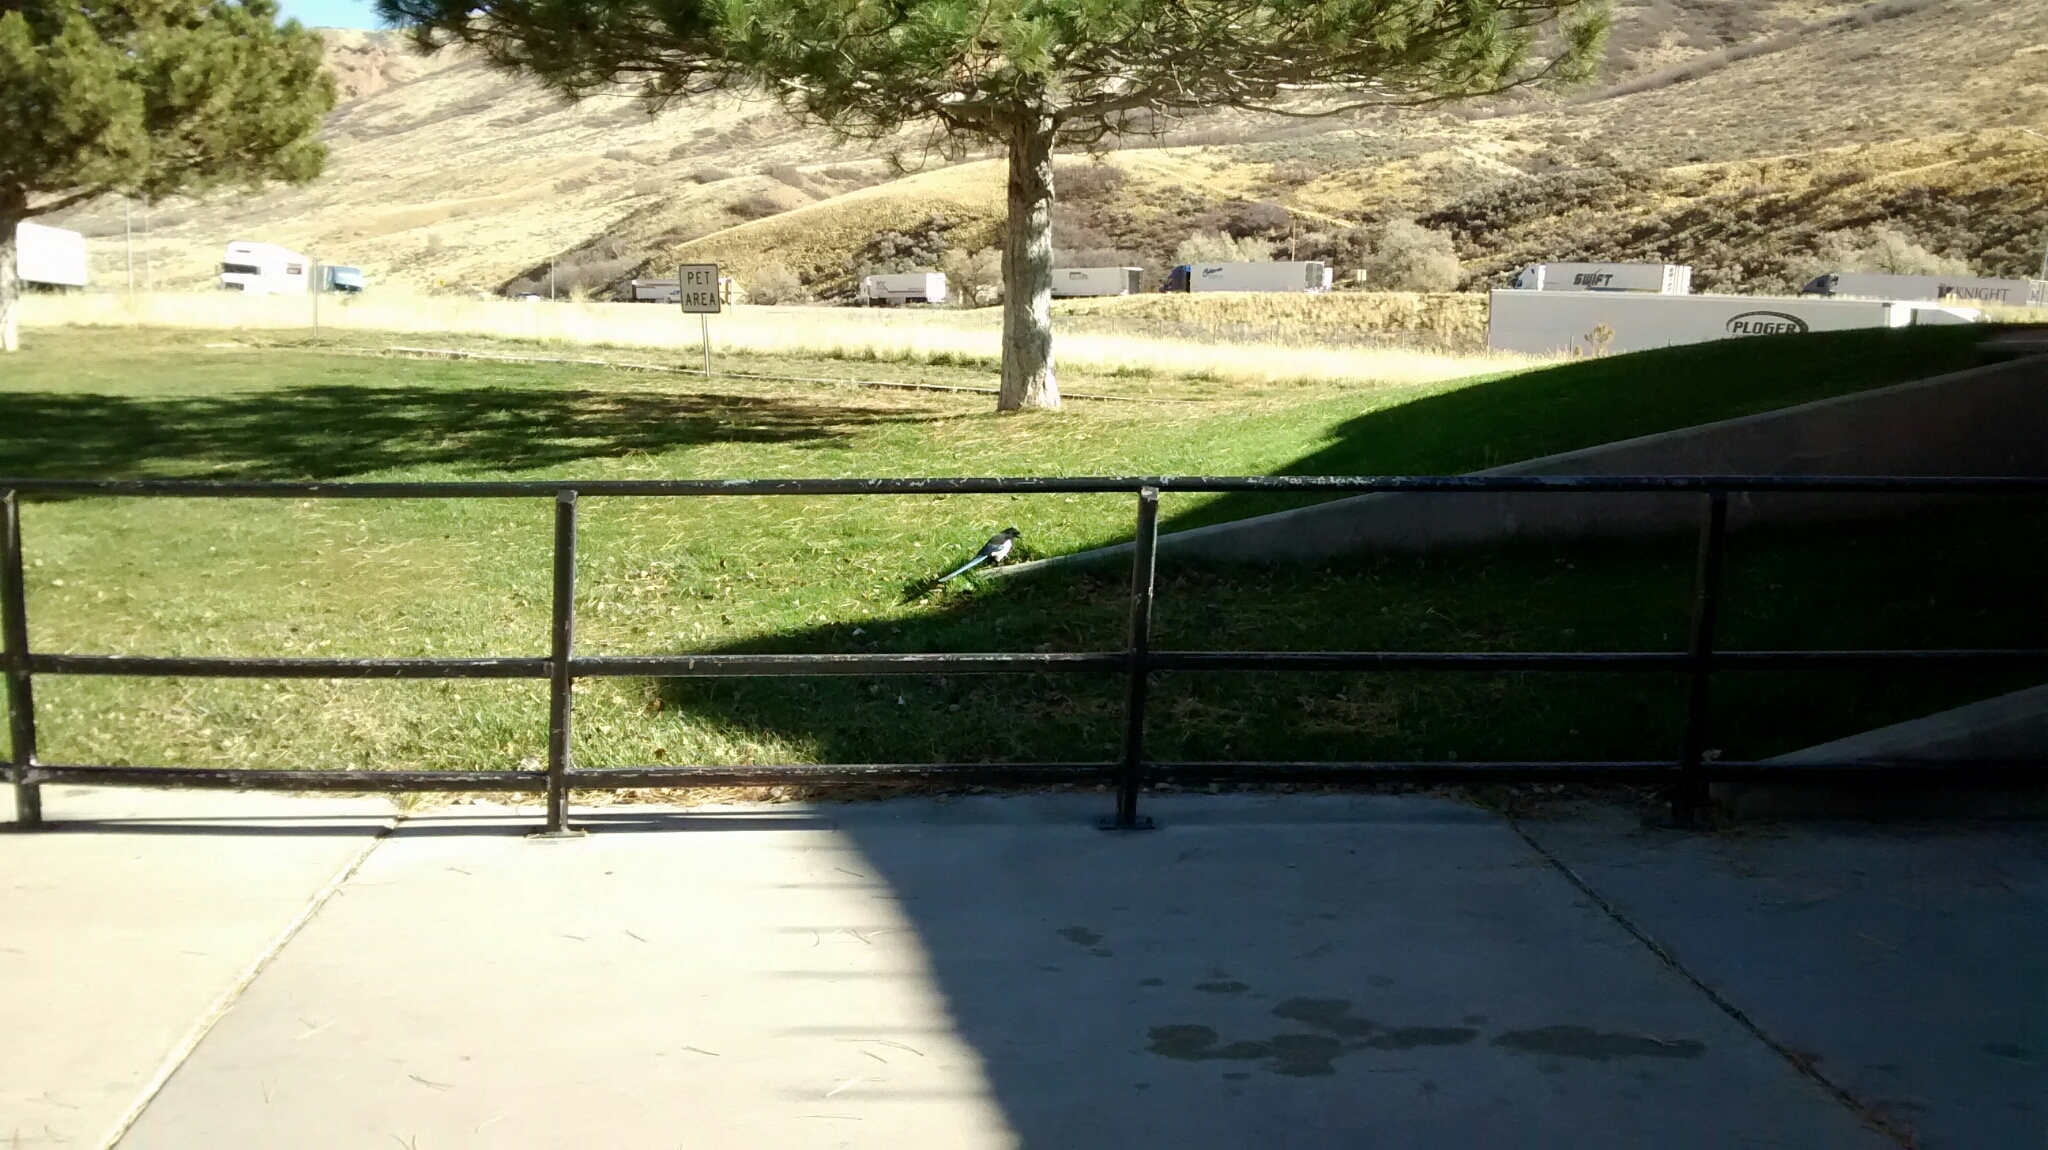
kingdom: Animalia
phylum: Chordata
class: Aves
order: Passeriformes
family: Corvidae
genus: Pica
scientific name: Pica hudsonia
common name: Black-billed magpie
